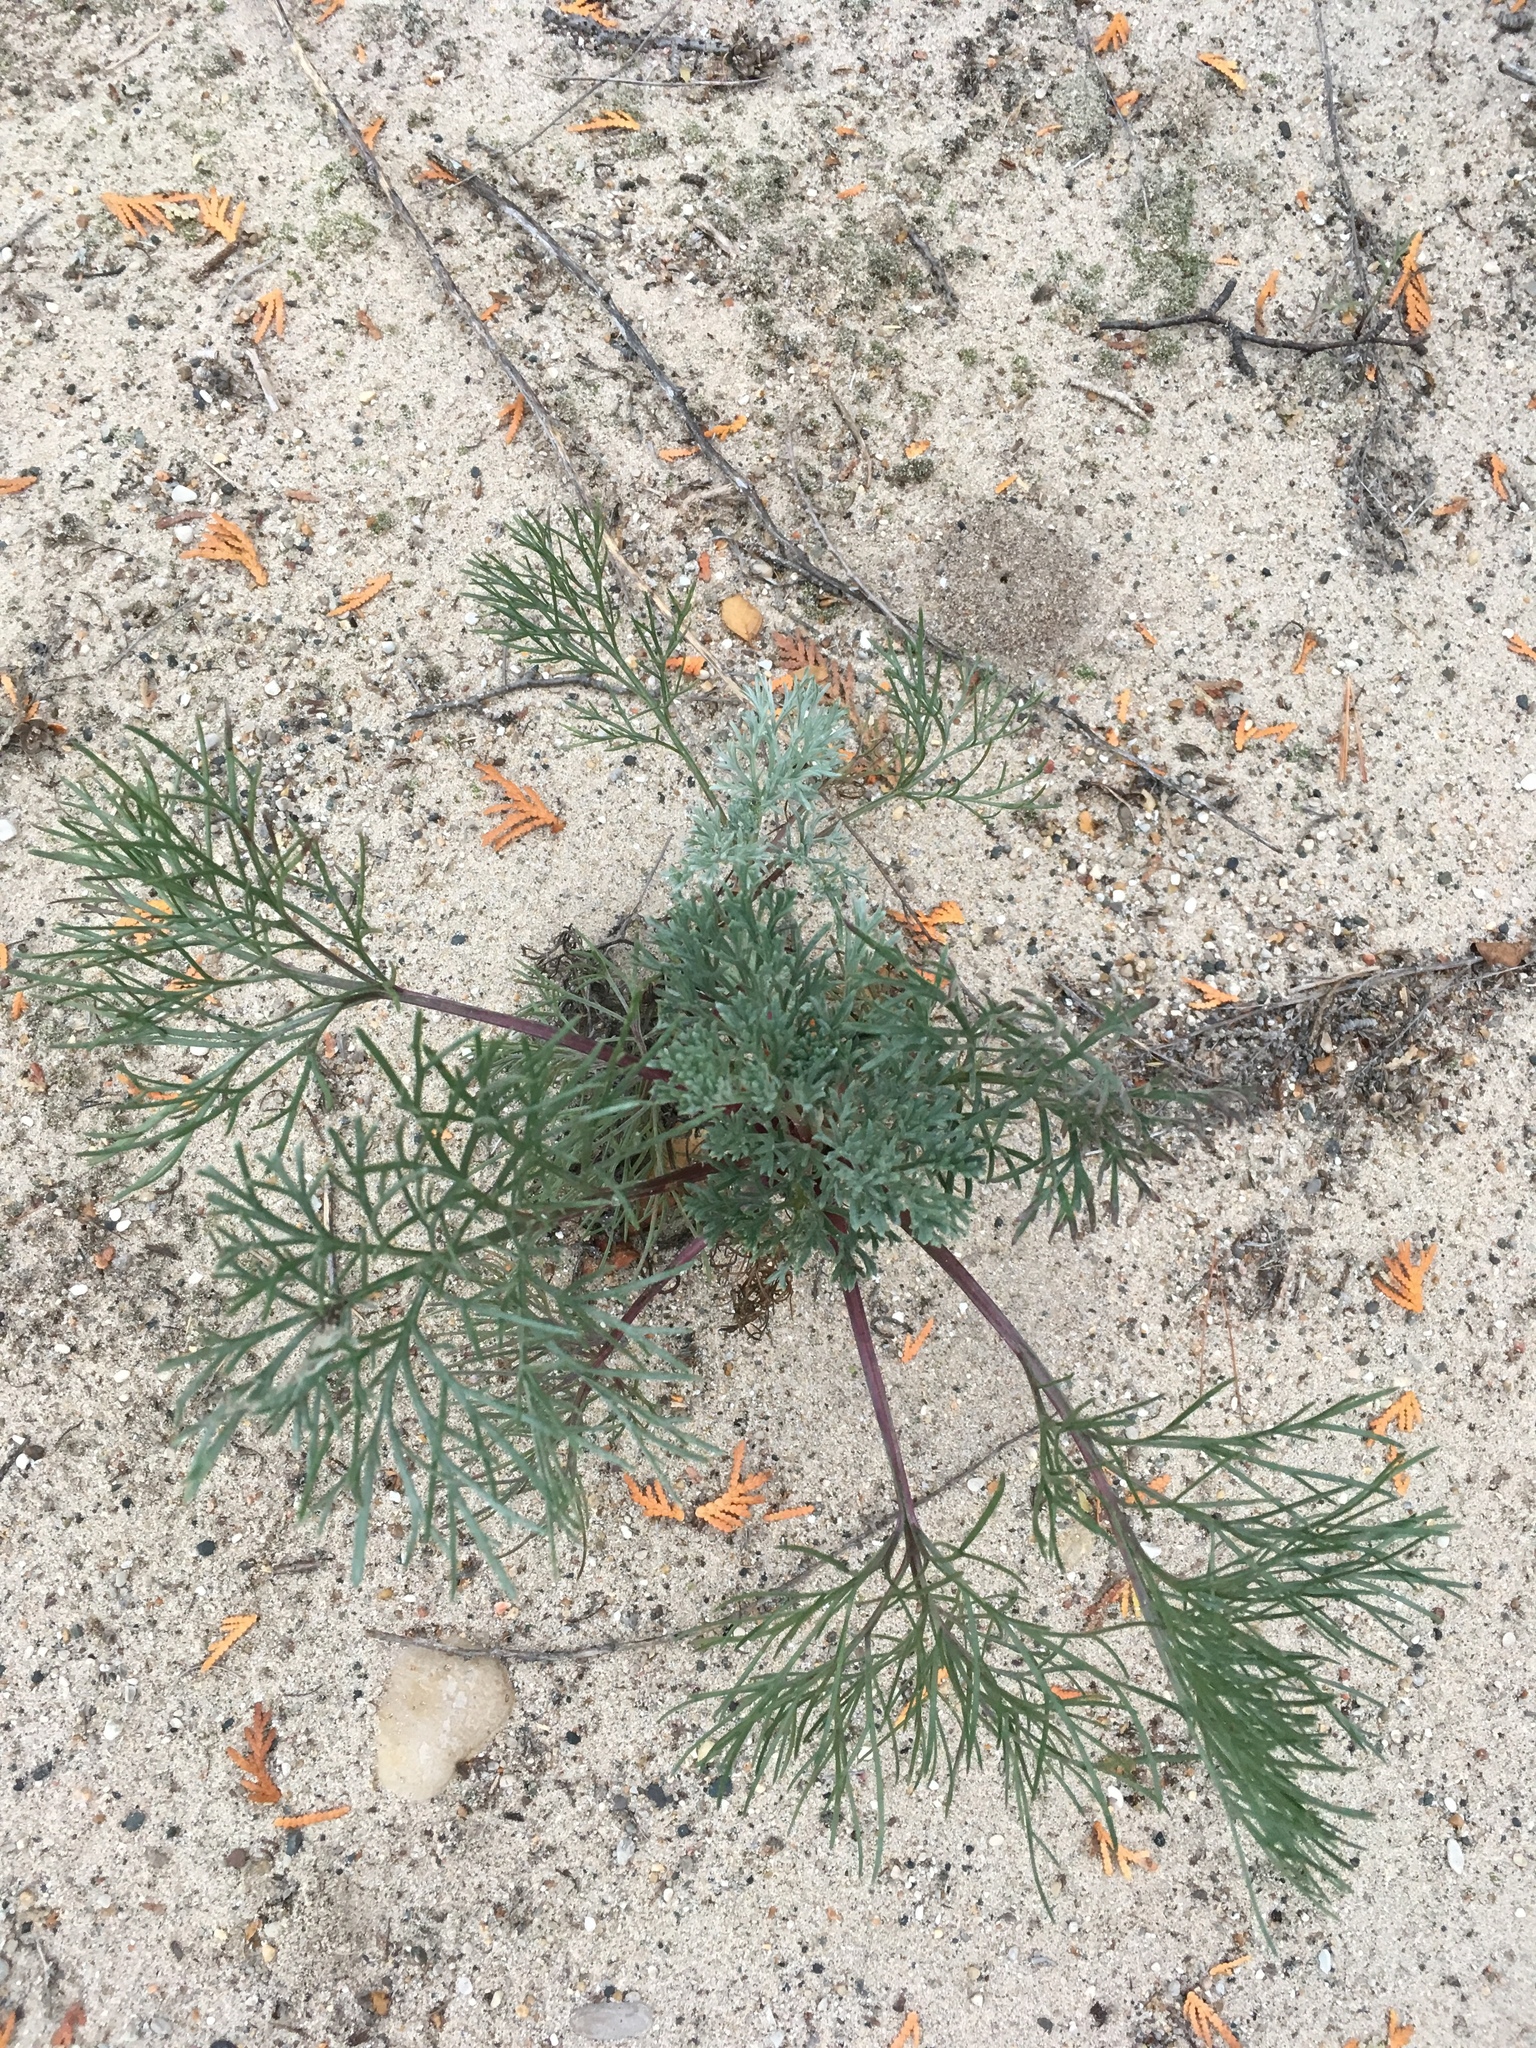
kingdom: Plantae
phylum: Tracheophyta
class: Magnoliopsida
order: Asterales
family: Asteraceae
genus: Artemisia
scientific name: Artemisia campestris
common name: Field wormwood
